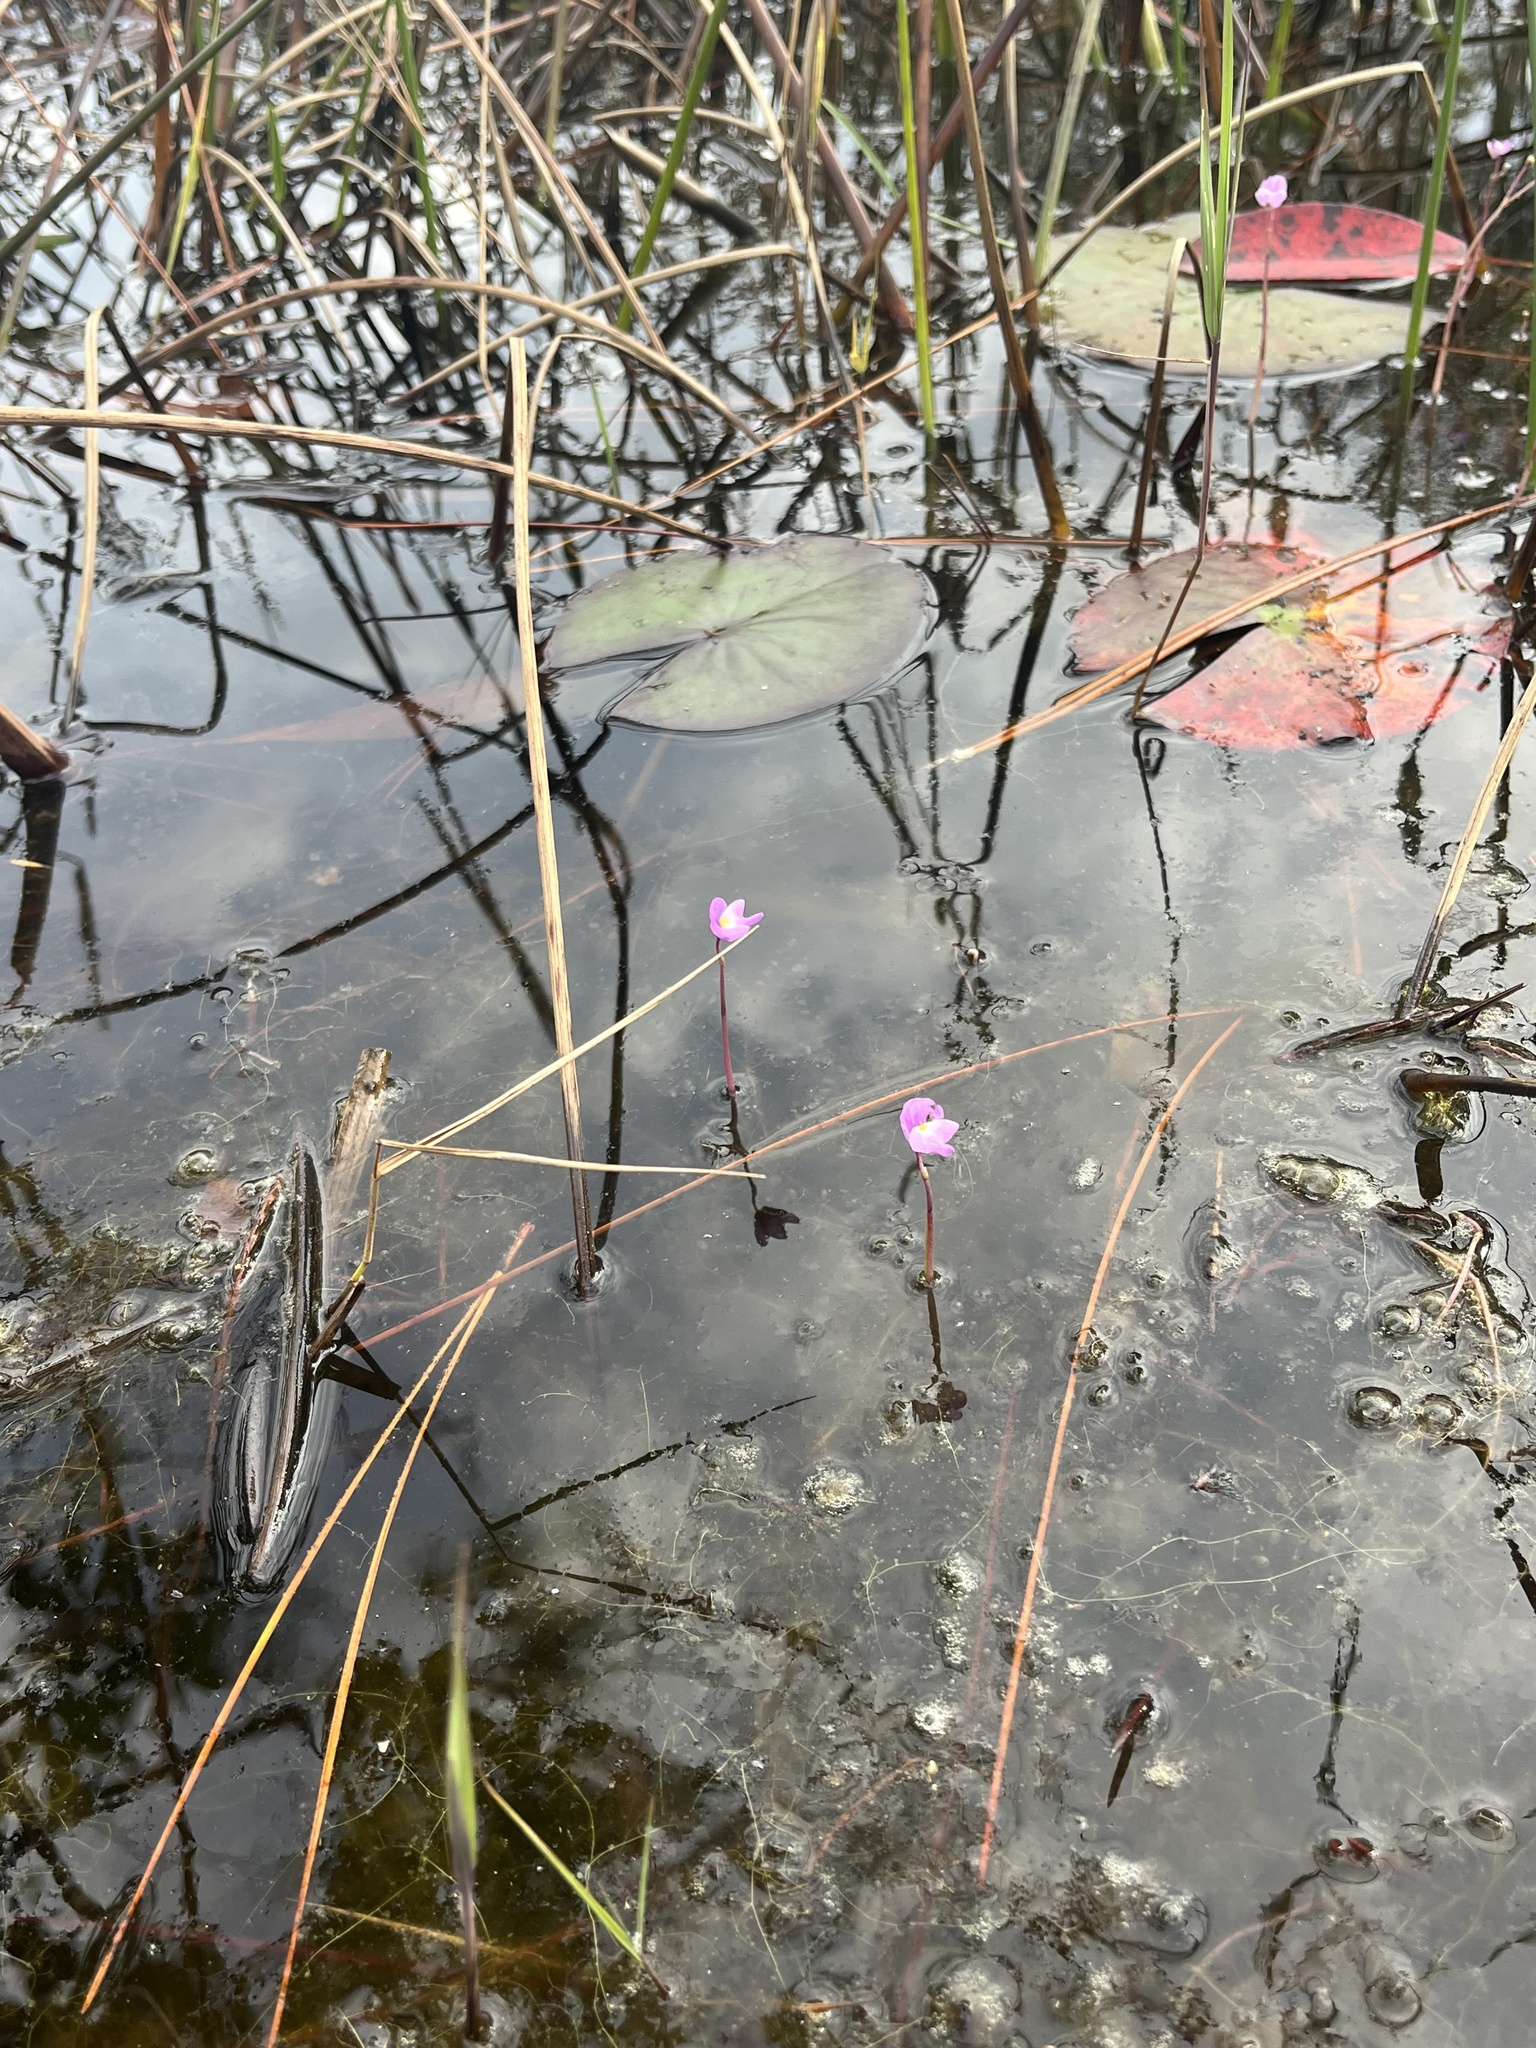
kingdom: Plantae
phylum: Tracheophyta
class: Magnoliopsida
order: Lamiales
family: Lentibulariaceae
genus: Utricularia
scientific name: Utricularia purpurea
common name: Eastern purple bladderwort
